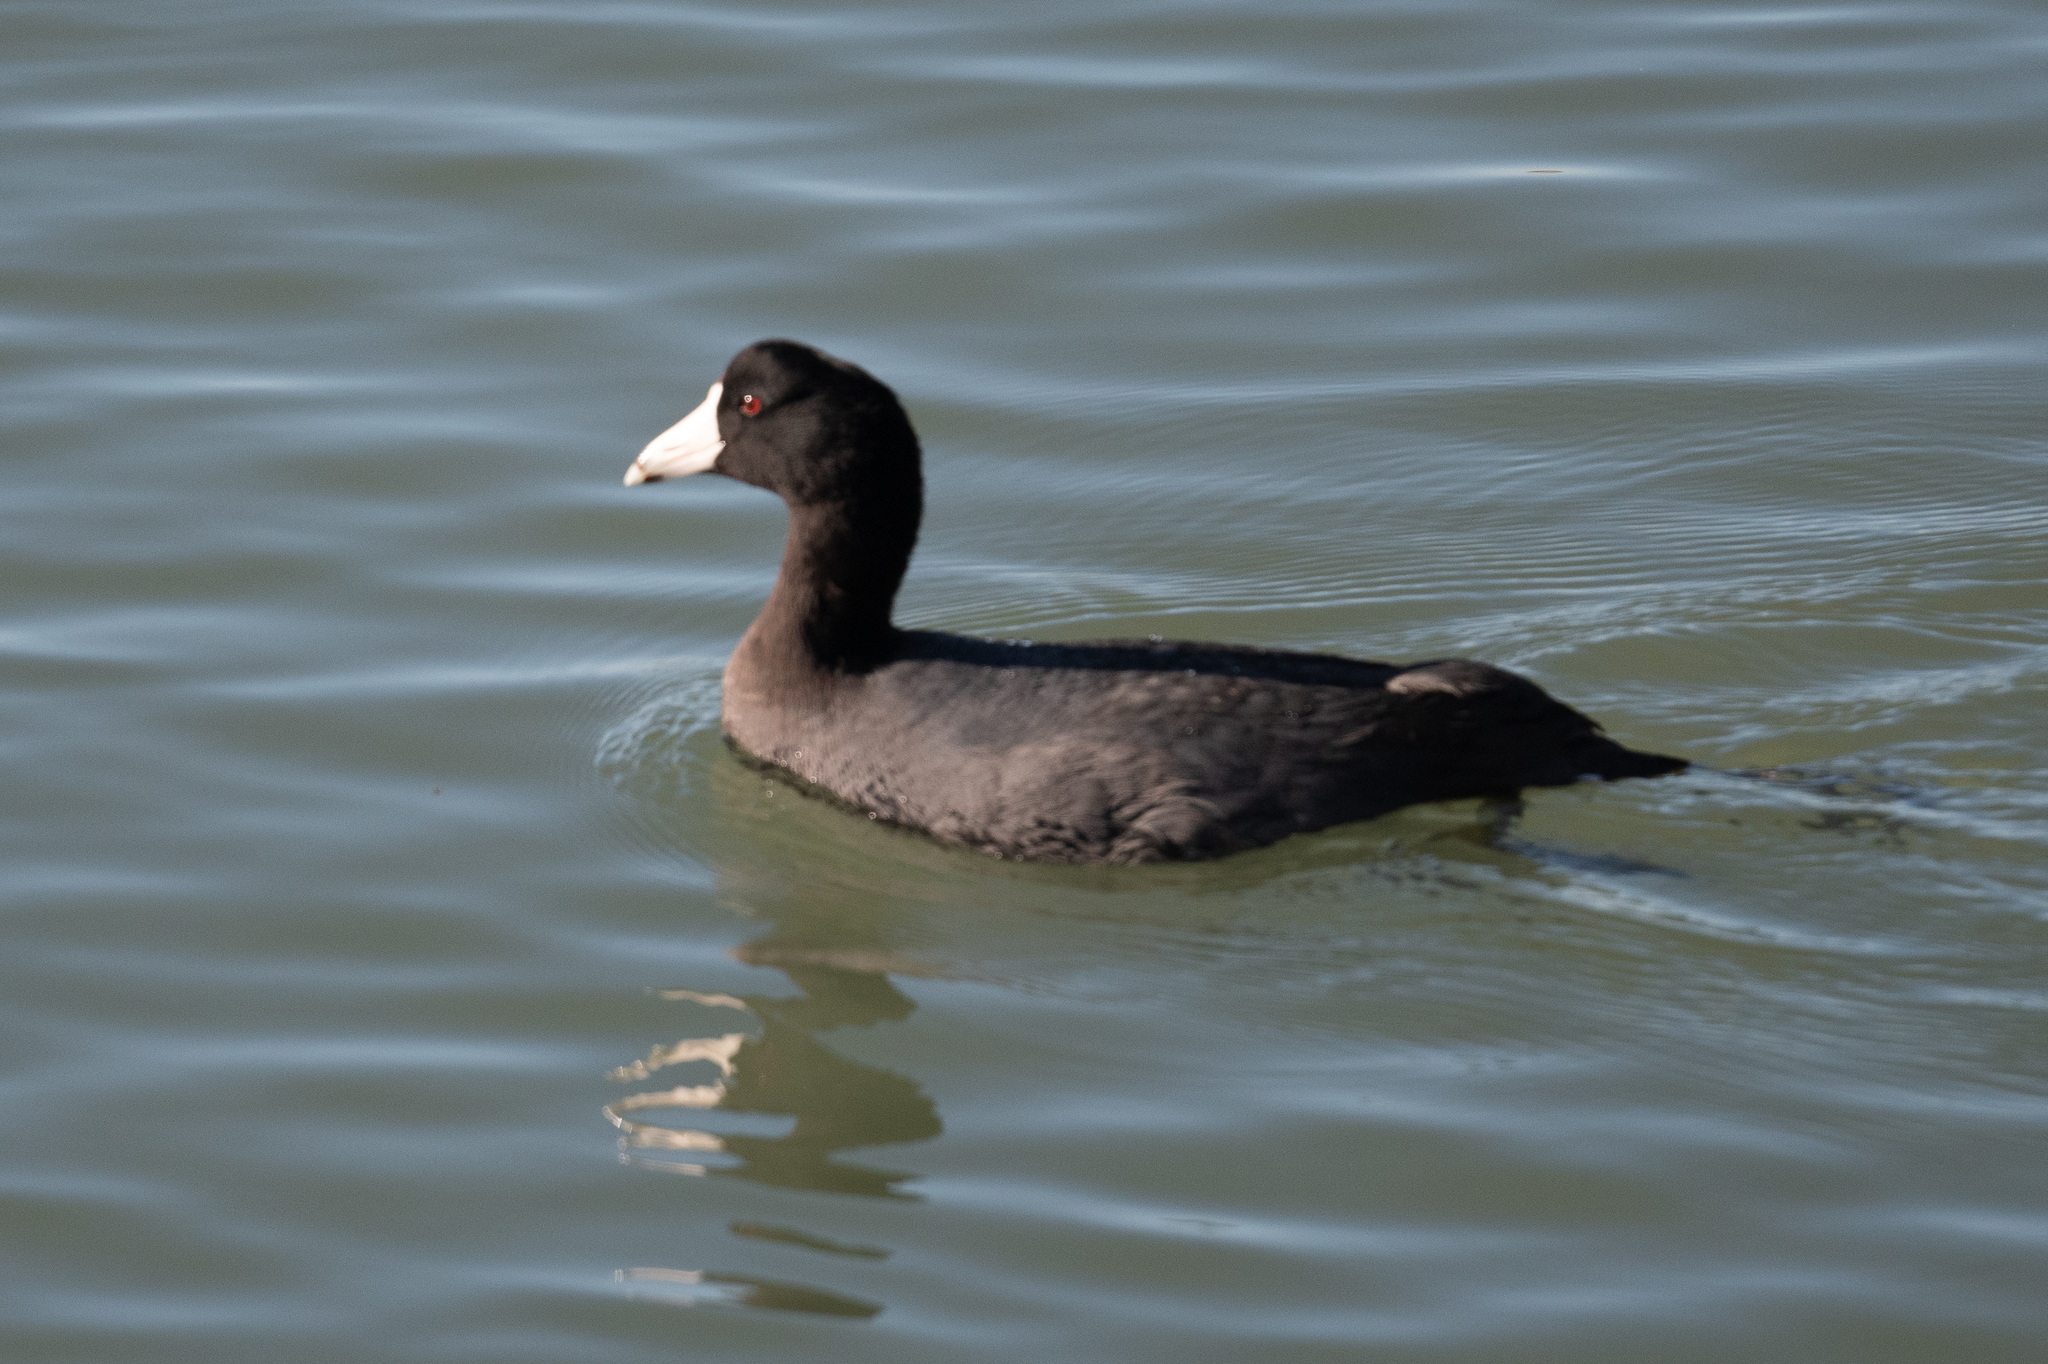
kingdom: Animalia
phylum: Chordata
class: Aves
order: Gruiformes
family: Rallidae
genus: Fulica
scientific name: Fulica americana
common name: American coot
